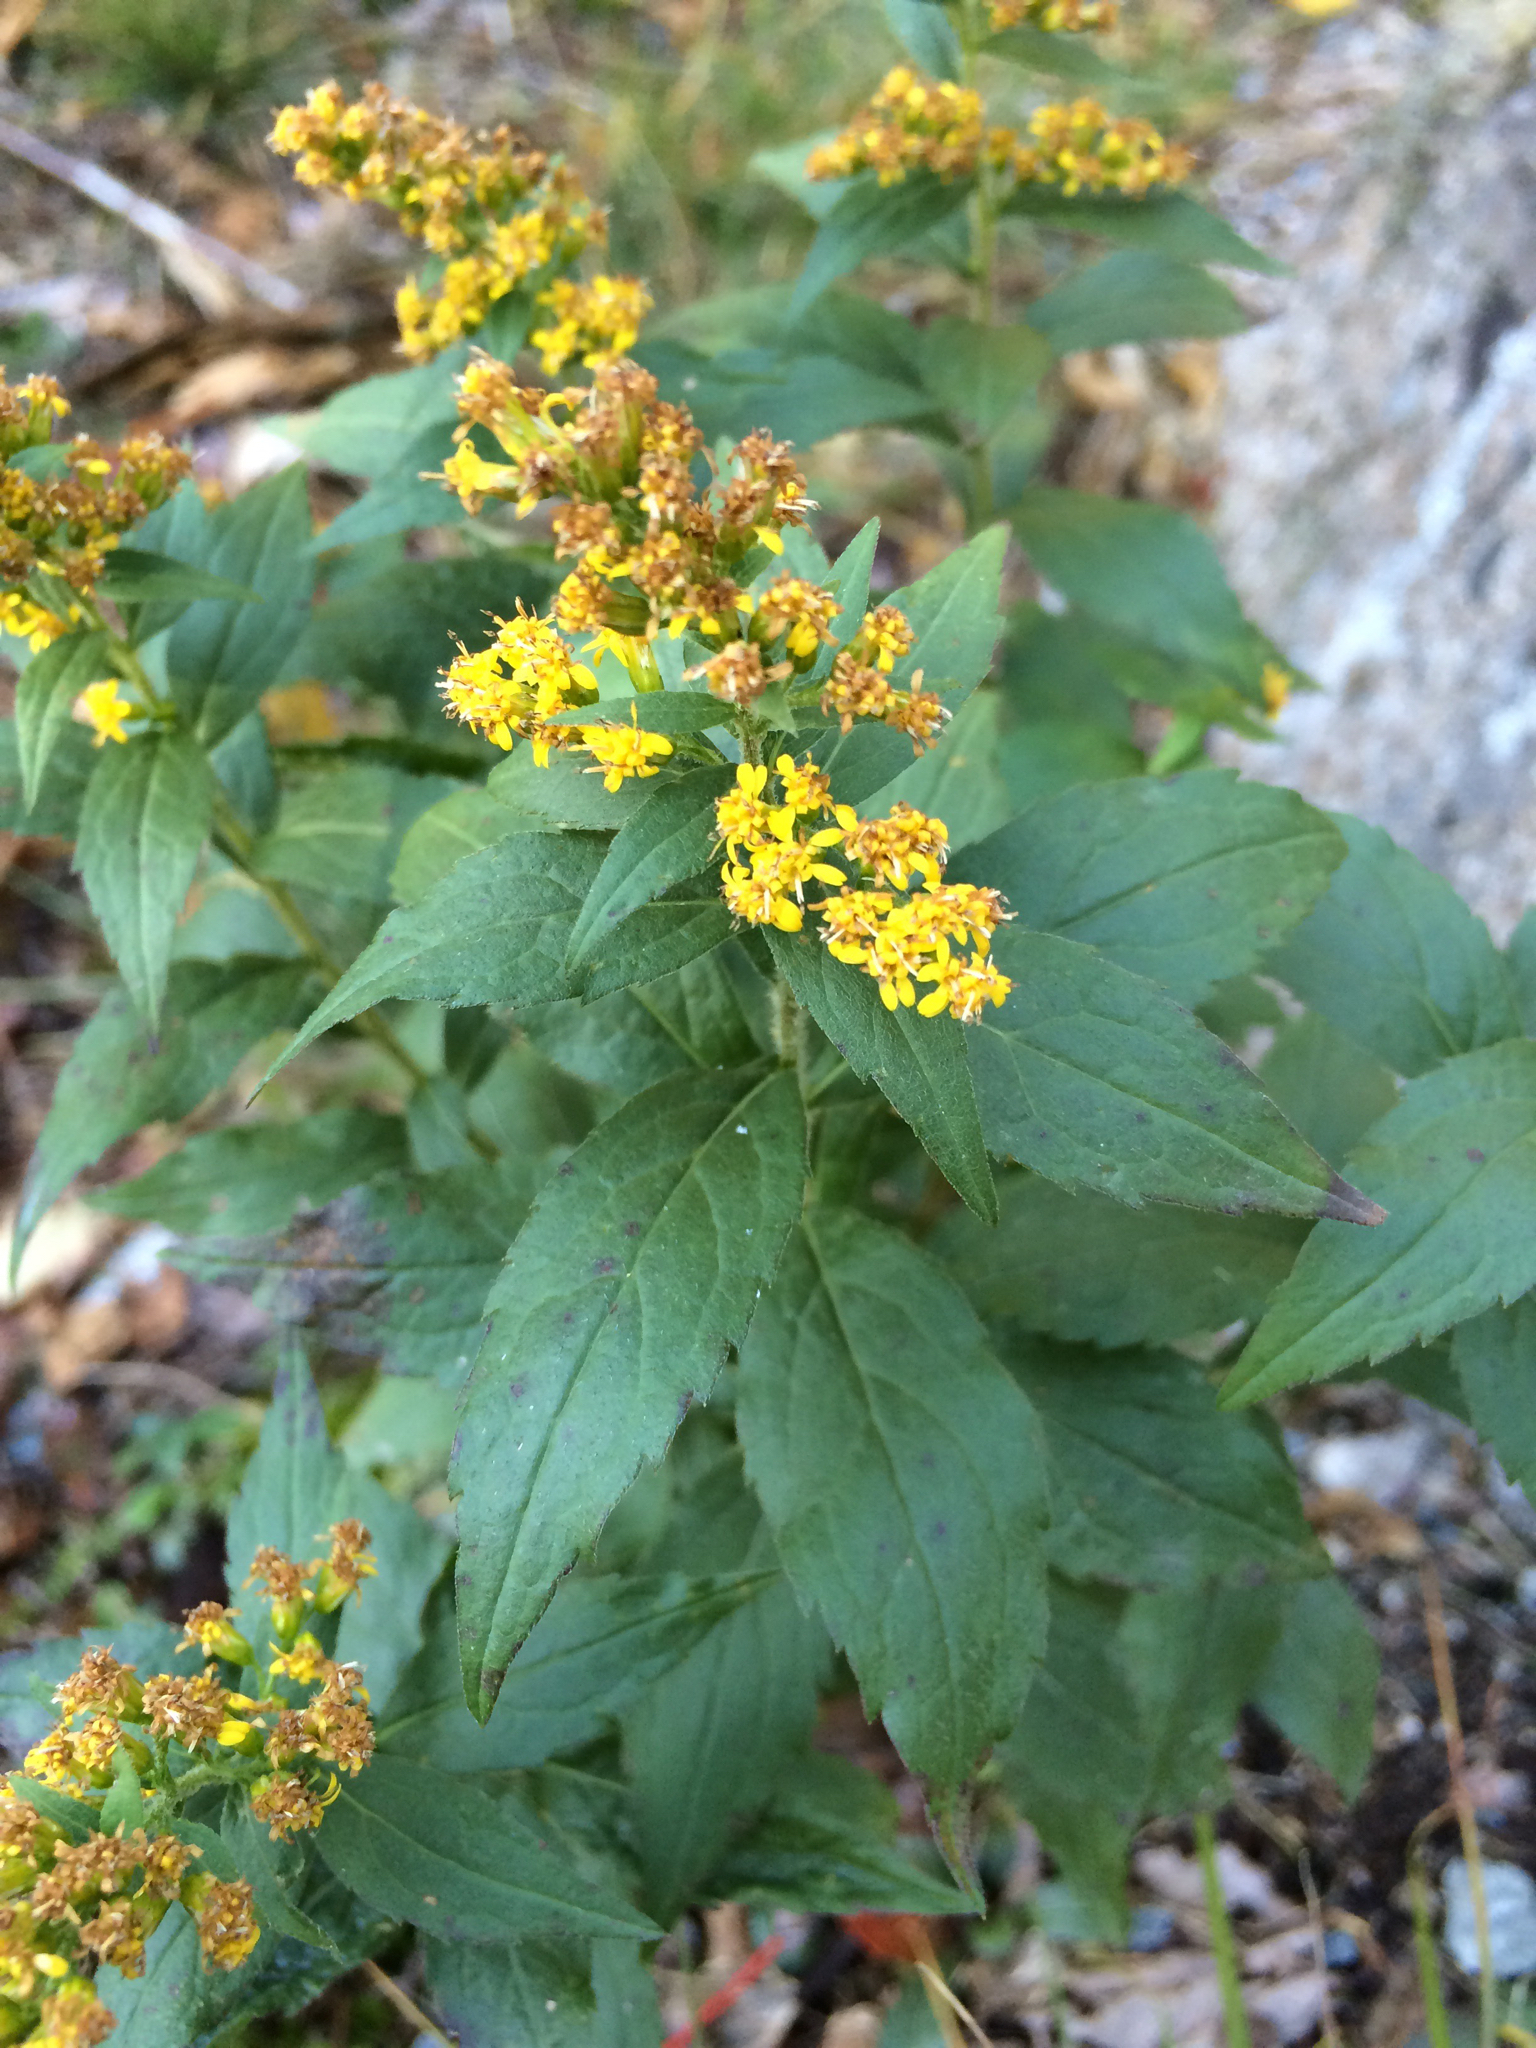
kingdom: Plantae
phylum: Tracheophyta
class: Magnoliopsida
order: Asterales
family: Asteraceae
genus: Solidago
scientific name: Solidago rugosa
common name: Rough-stemmed goldenrod
